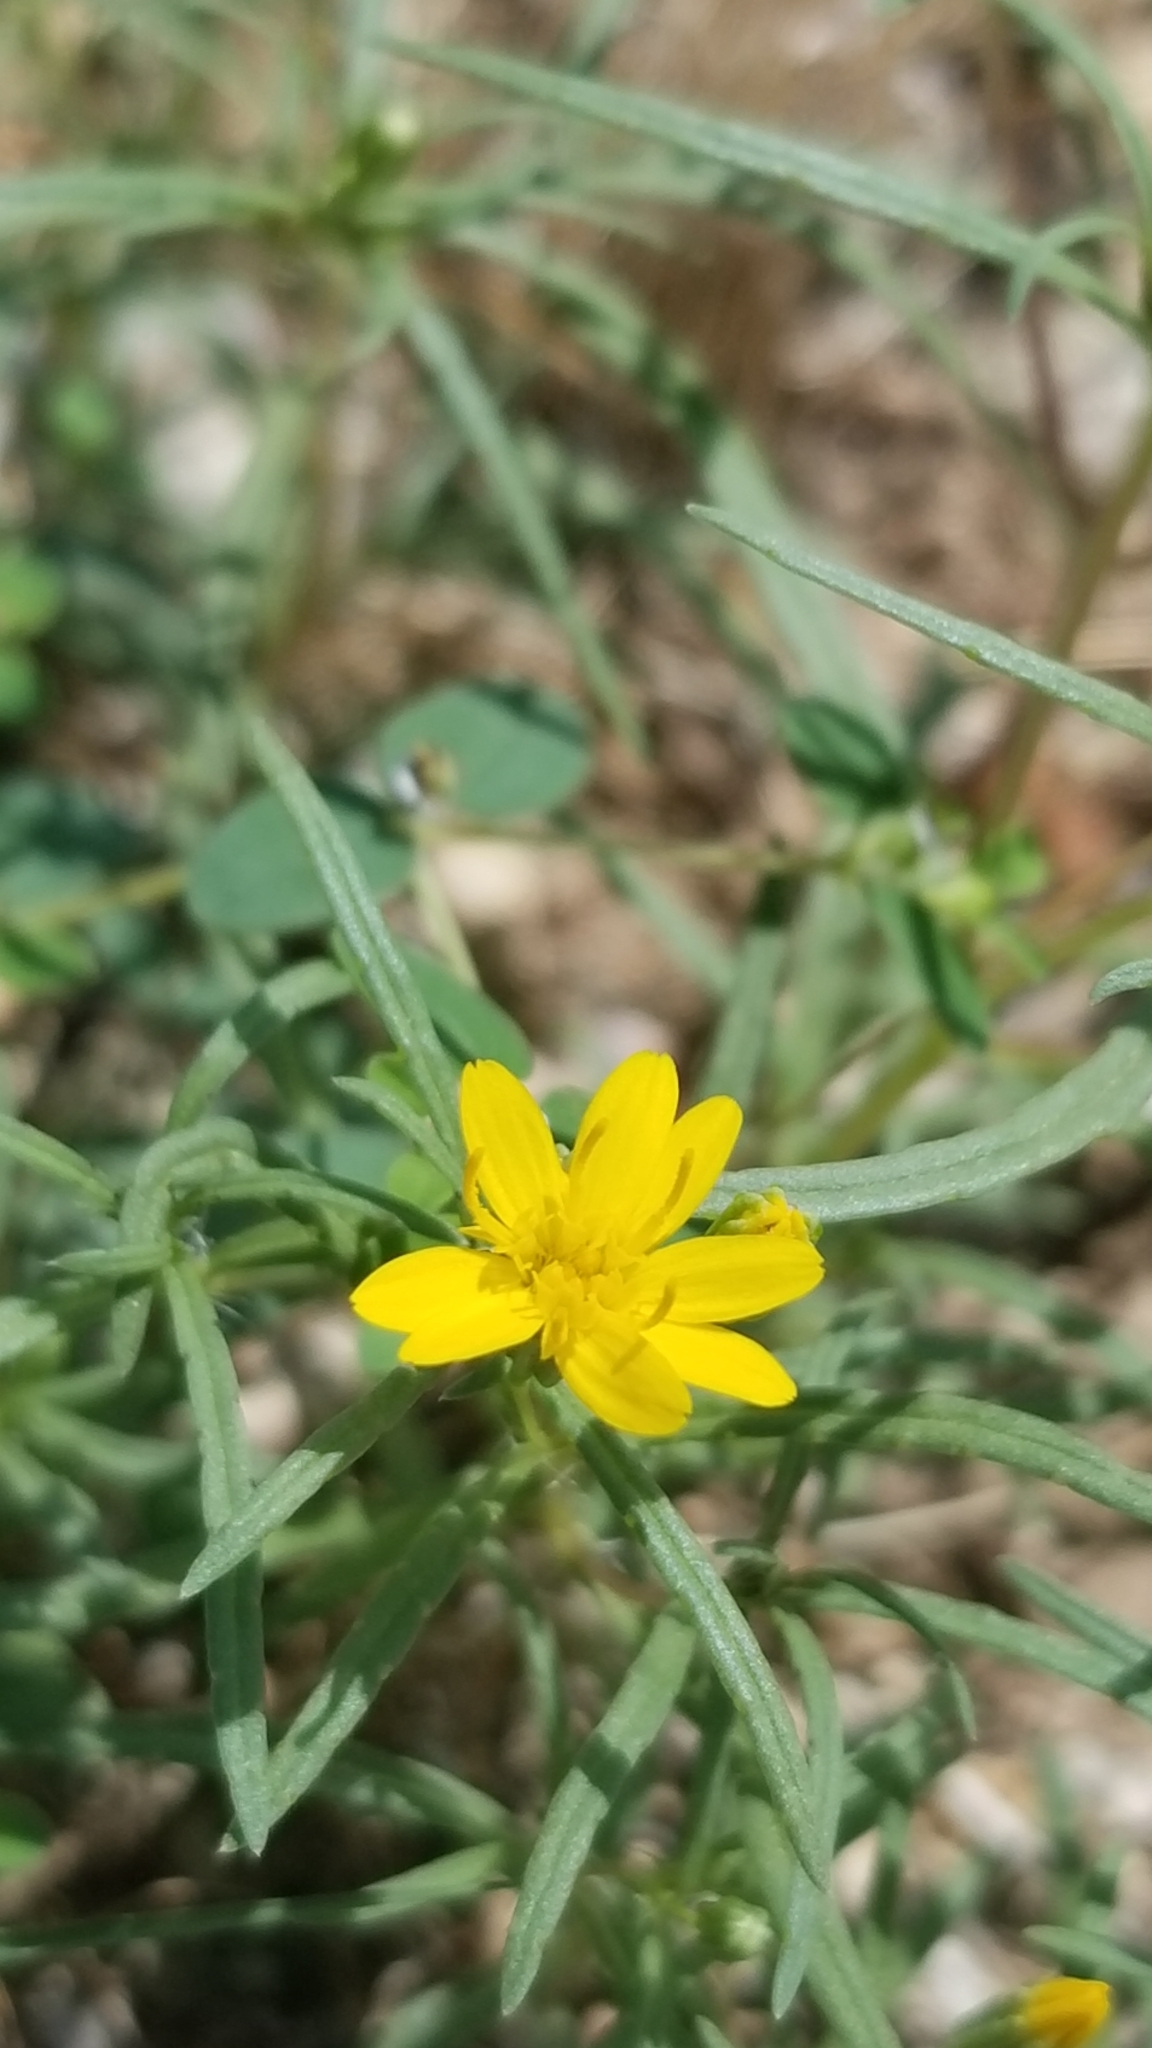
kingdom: Plantae
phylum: Tracheophyta
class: Magnoliopsida
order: Asterales
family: Asteraceae
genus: Pectis
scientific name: Pectis papposa
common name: Many-bristle chinchweed
